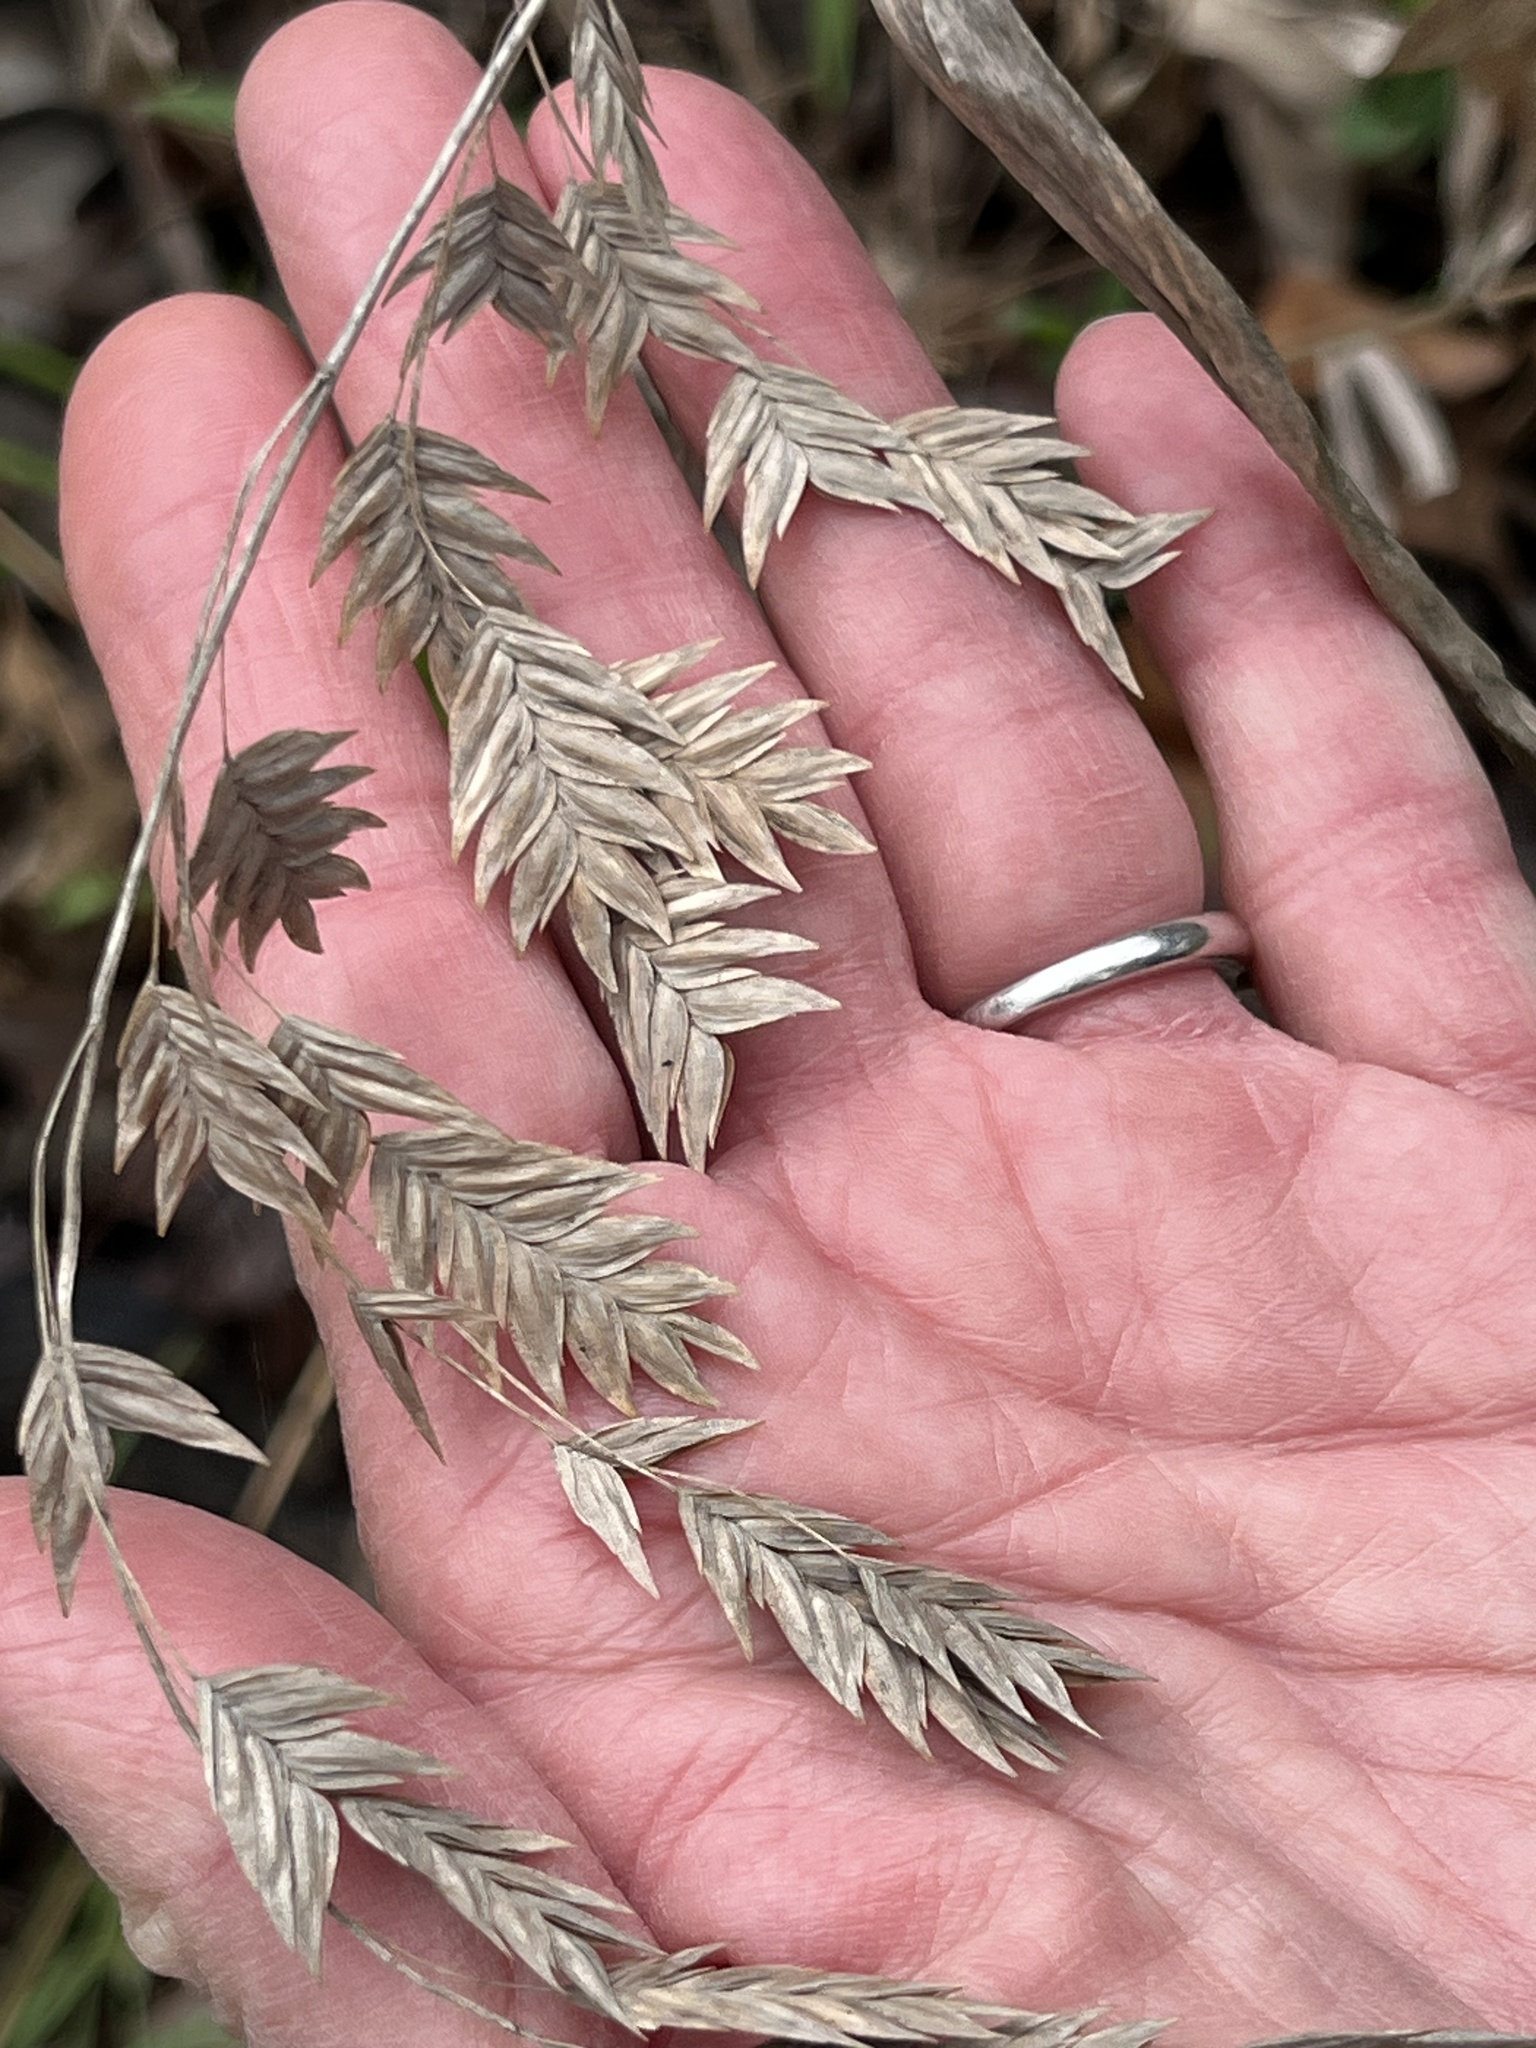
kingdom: Plantae
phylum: Tracheophyta
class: Liliopsida
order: Poales
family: Poaceae
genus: Chasmanthium
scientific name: Chasmanthium latifolium
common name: Broad-leaved chasmanthium
